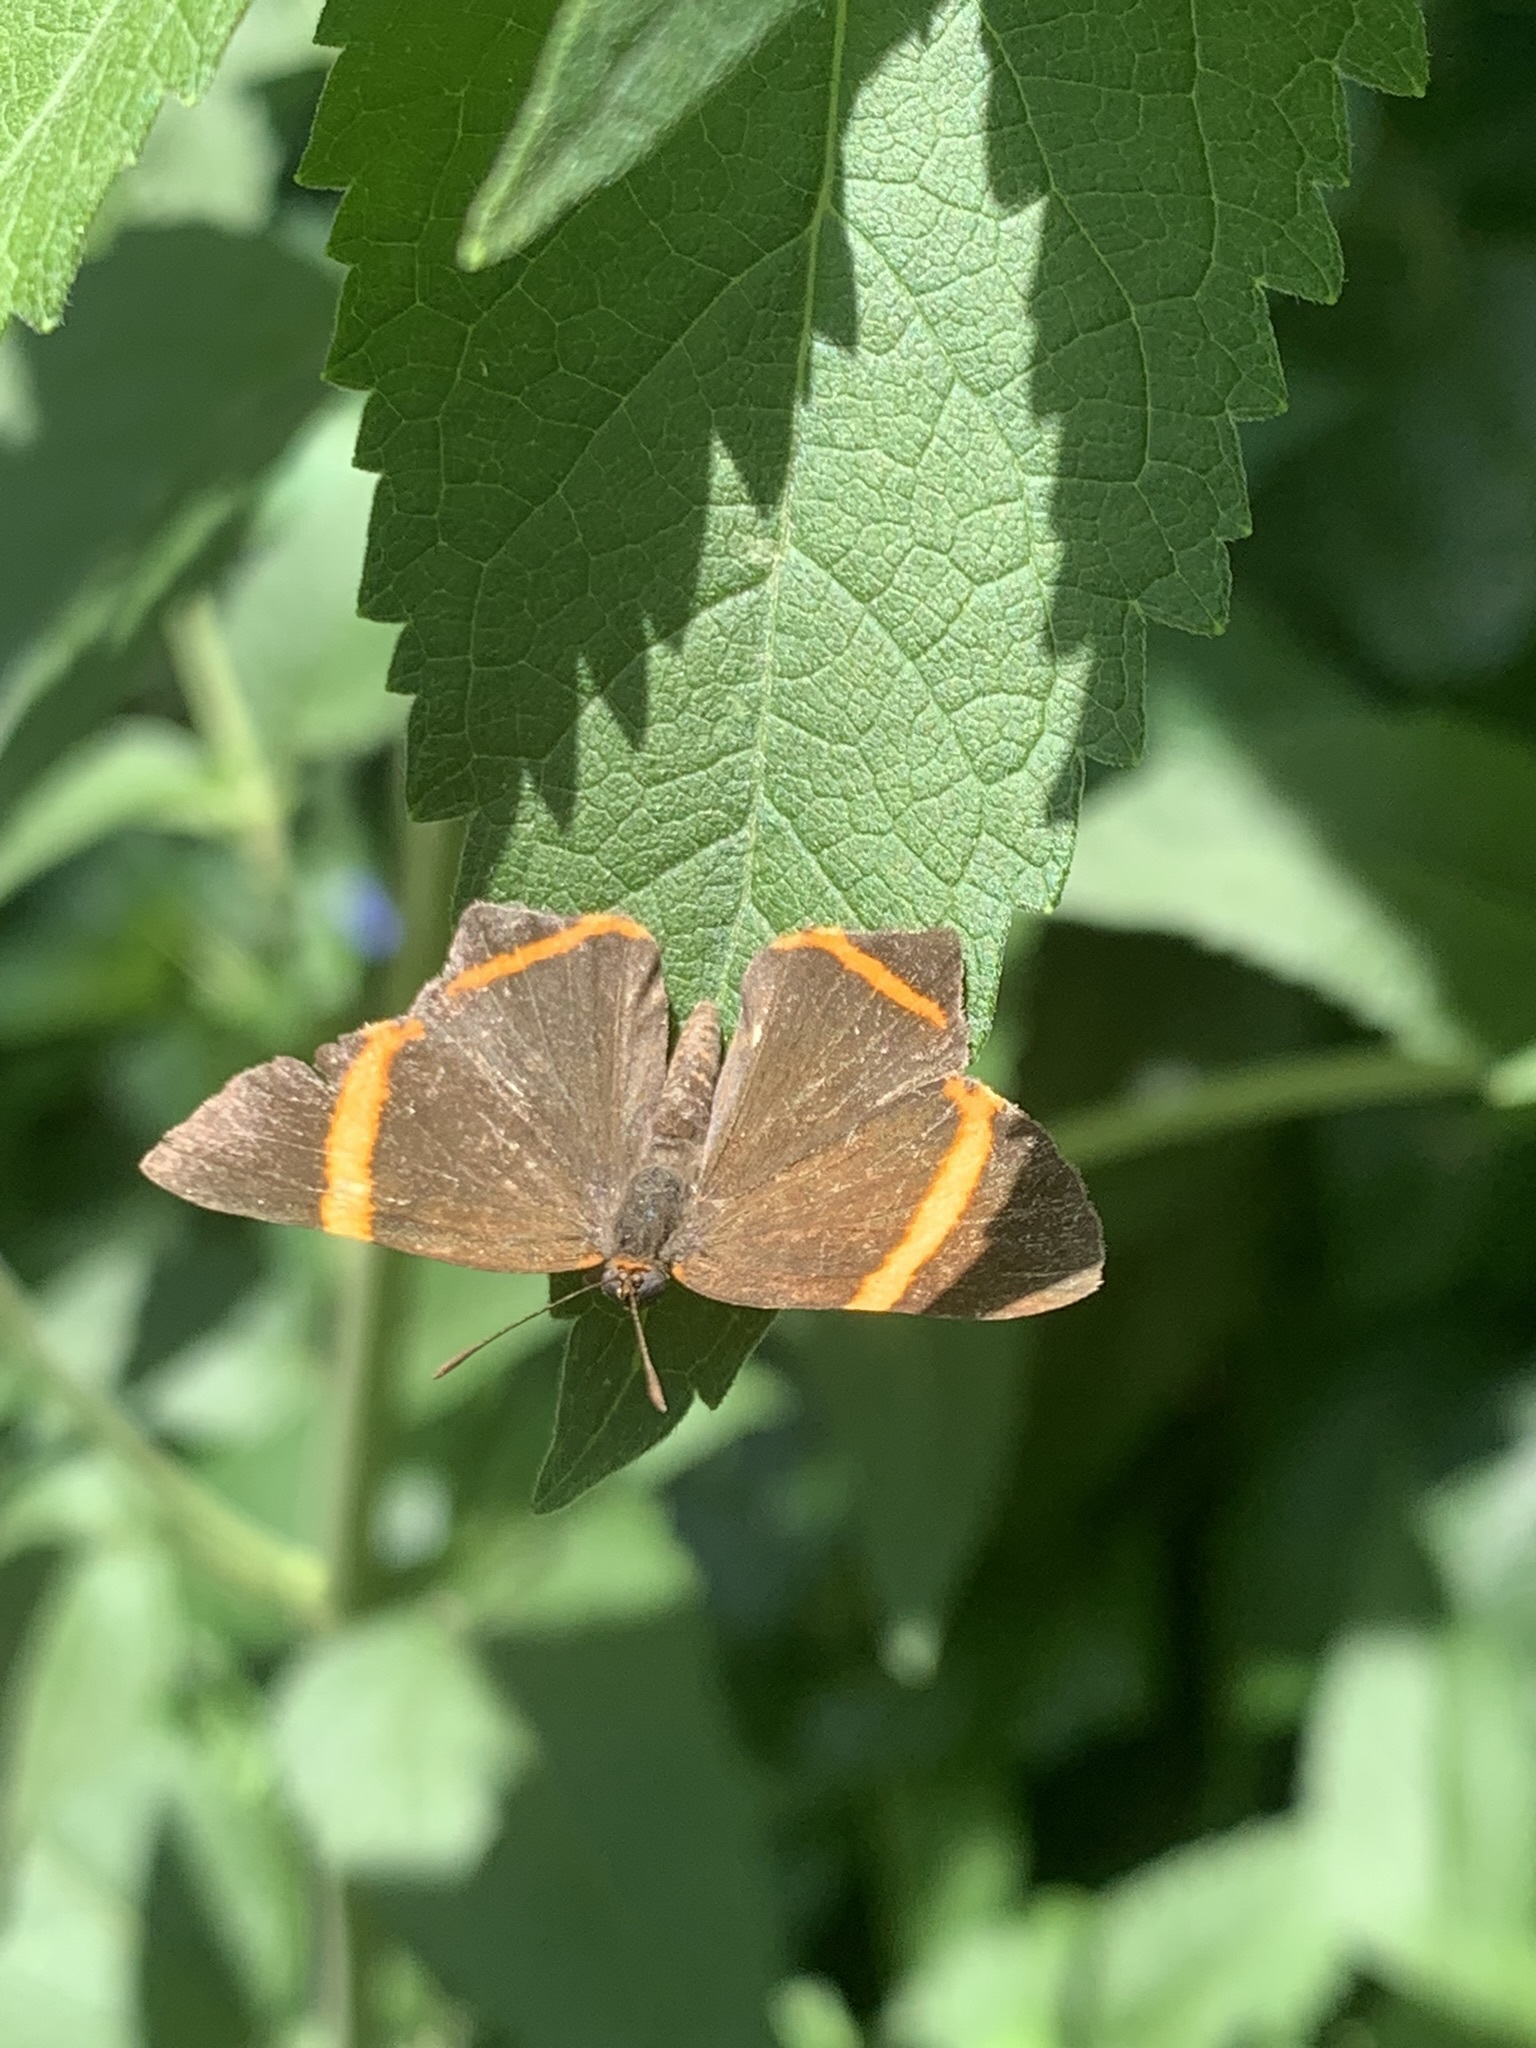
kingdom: Animalia
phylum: Arthropoda
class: Insecta
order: Lepidoptera
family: Riodinidae
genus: Riodina
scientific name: Riodina lysippoides
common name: Little dancer metalmark
